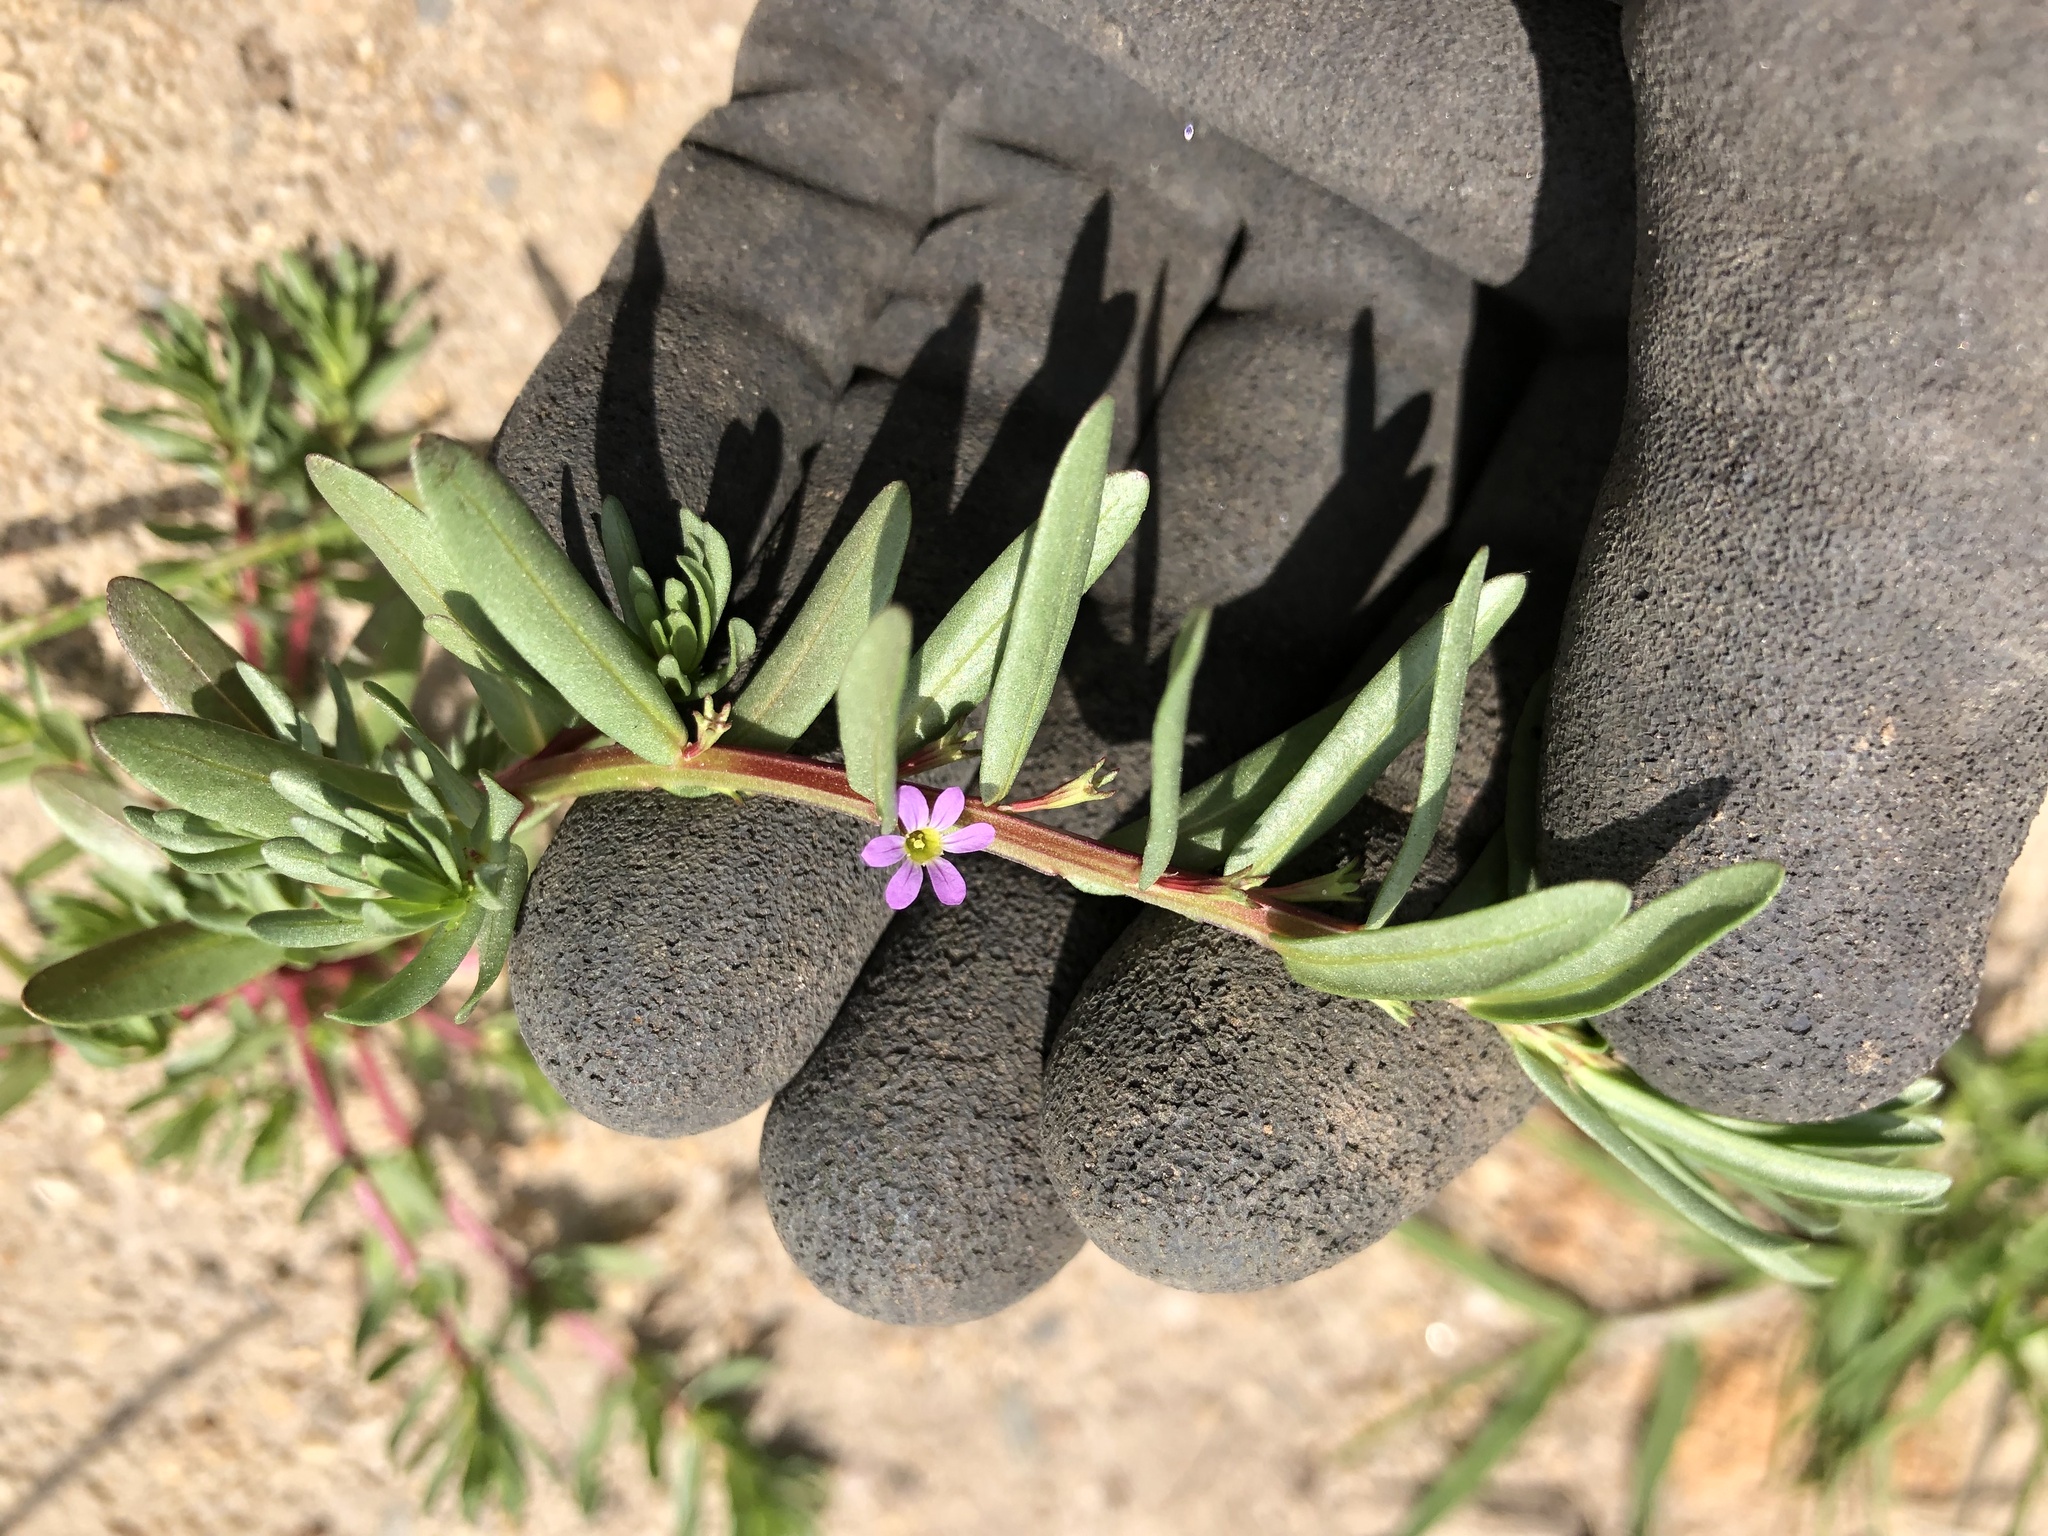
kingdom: Plantae
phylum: Tracheophyta
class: Magnoliopsida
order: Myrtales
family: Lythraceae
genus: Lythrum
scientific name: Lythrum hyssopifolia
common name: Grass-poly
